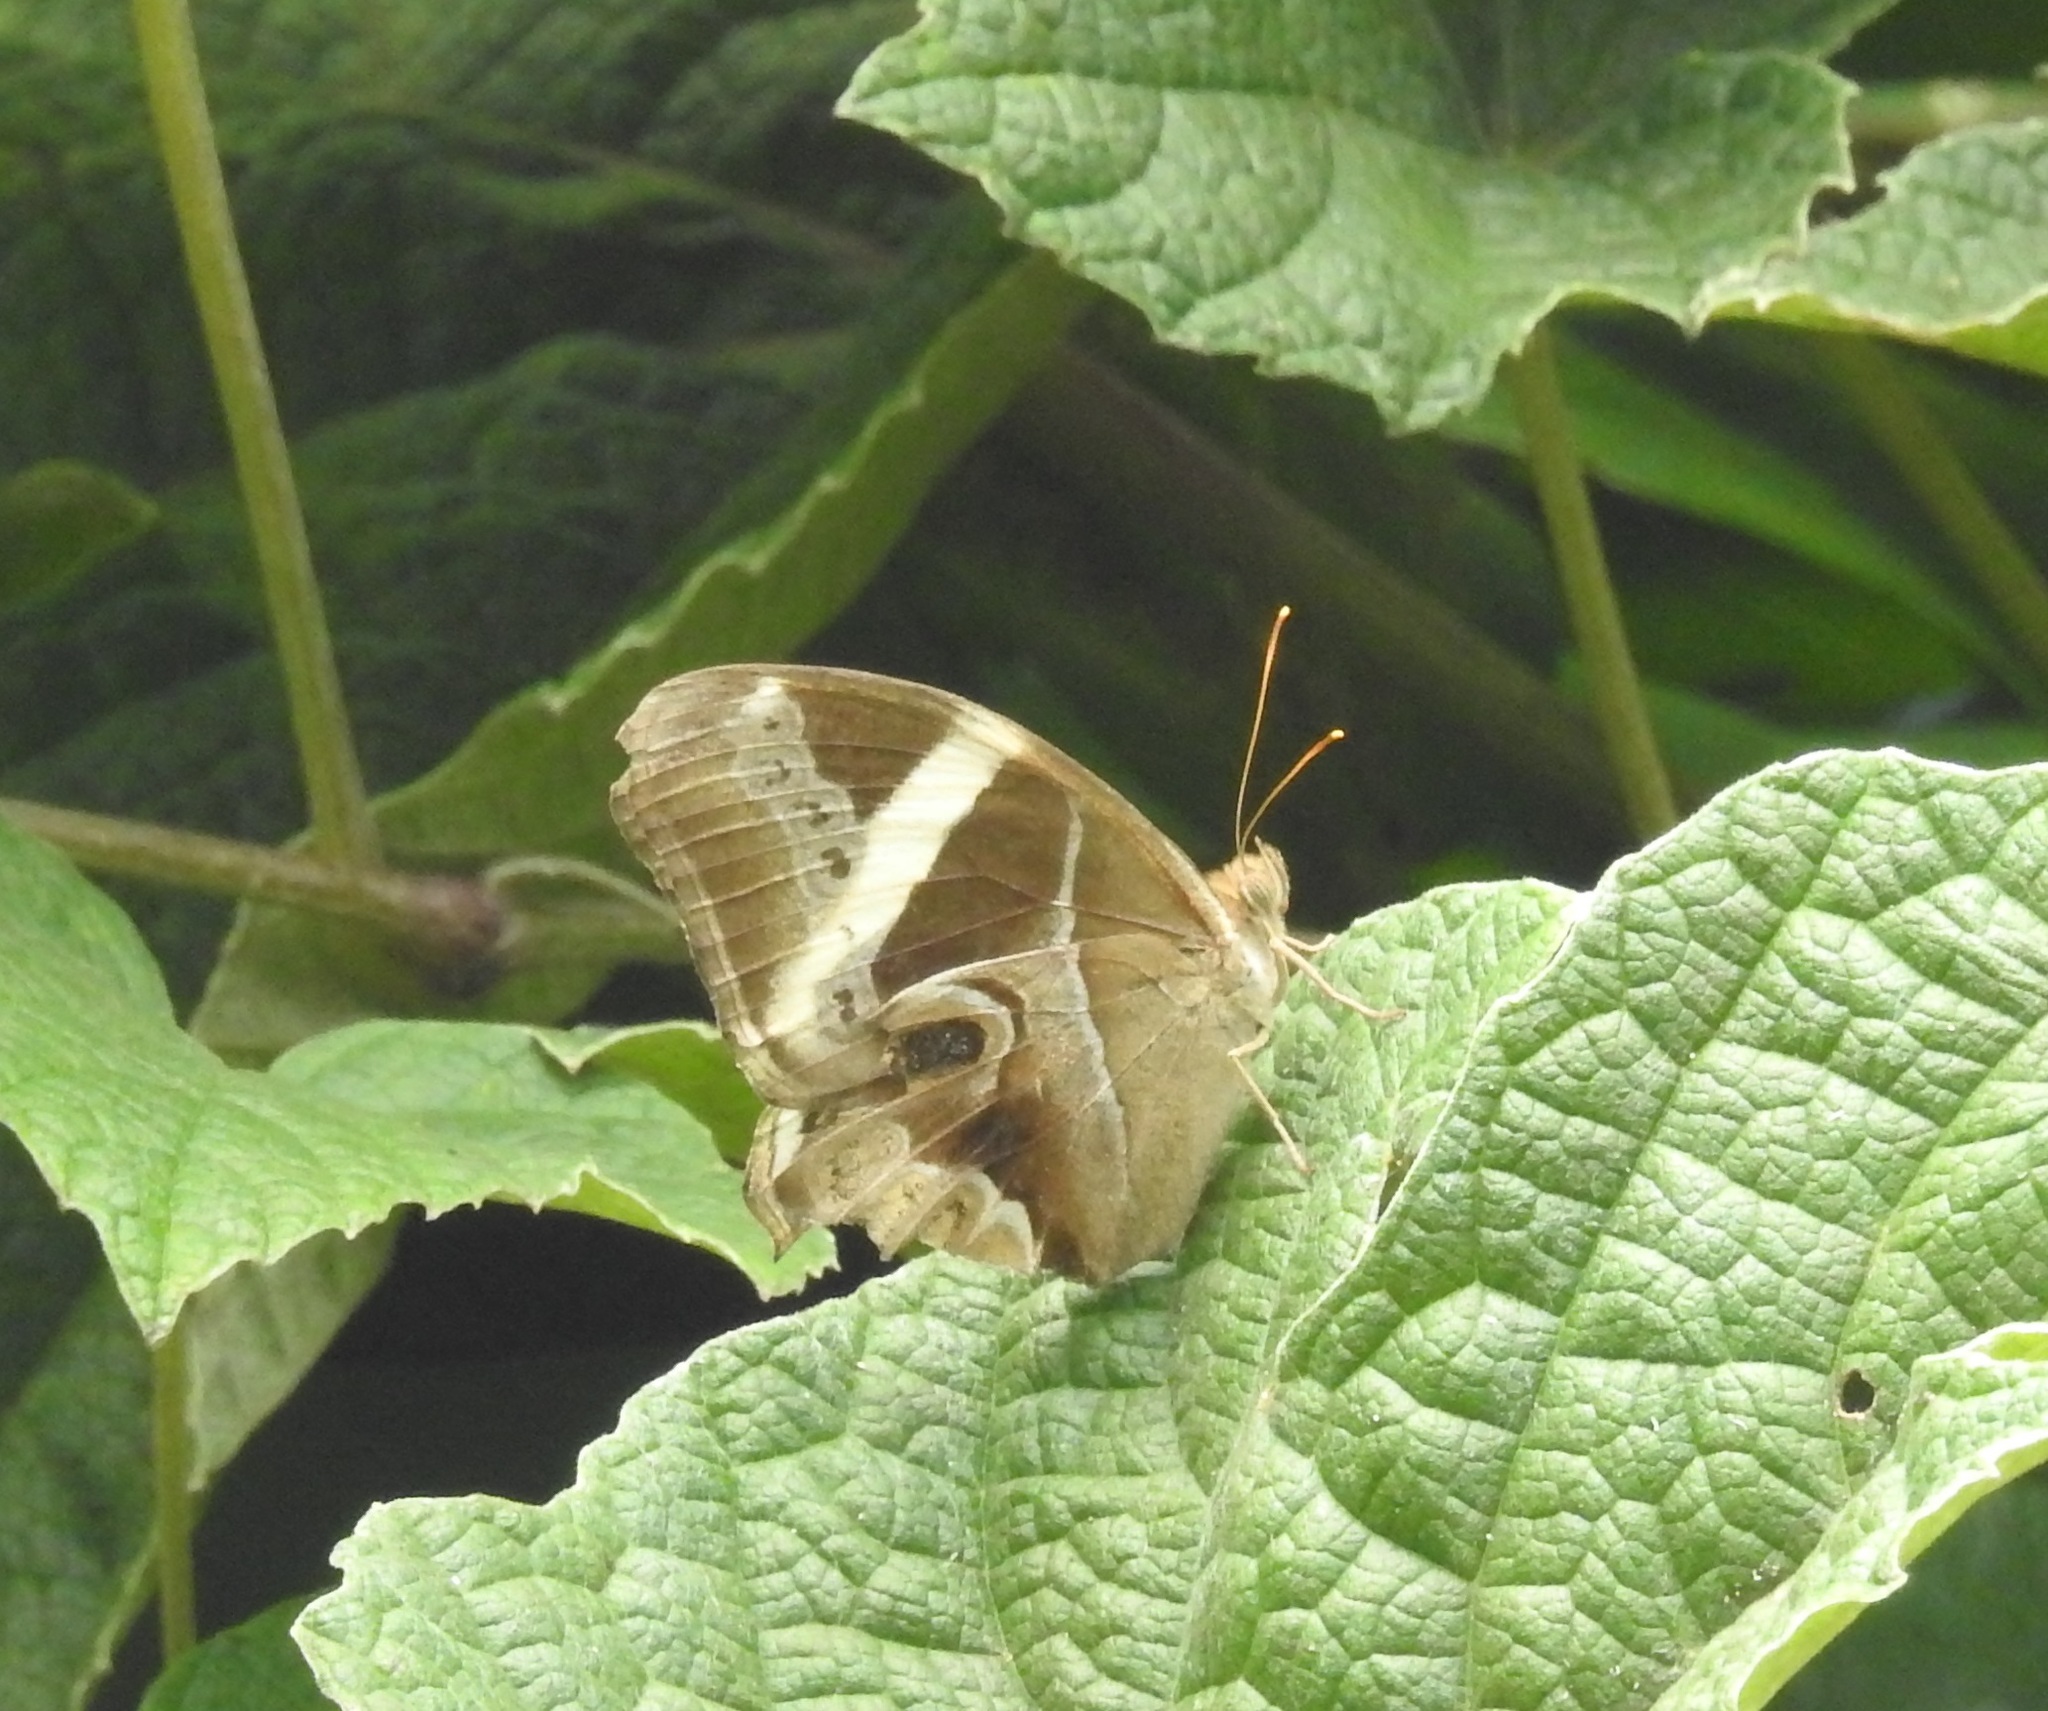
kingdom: Animalia
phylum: Arthropoda
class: Insecta
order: Lepidoptera
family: Nymphalidae
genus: Lethe
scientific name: Lethe europa
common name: Bamboo treebrown
